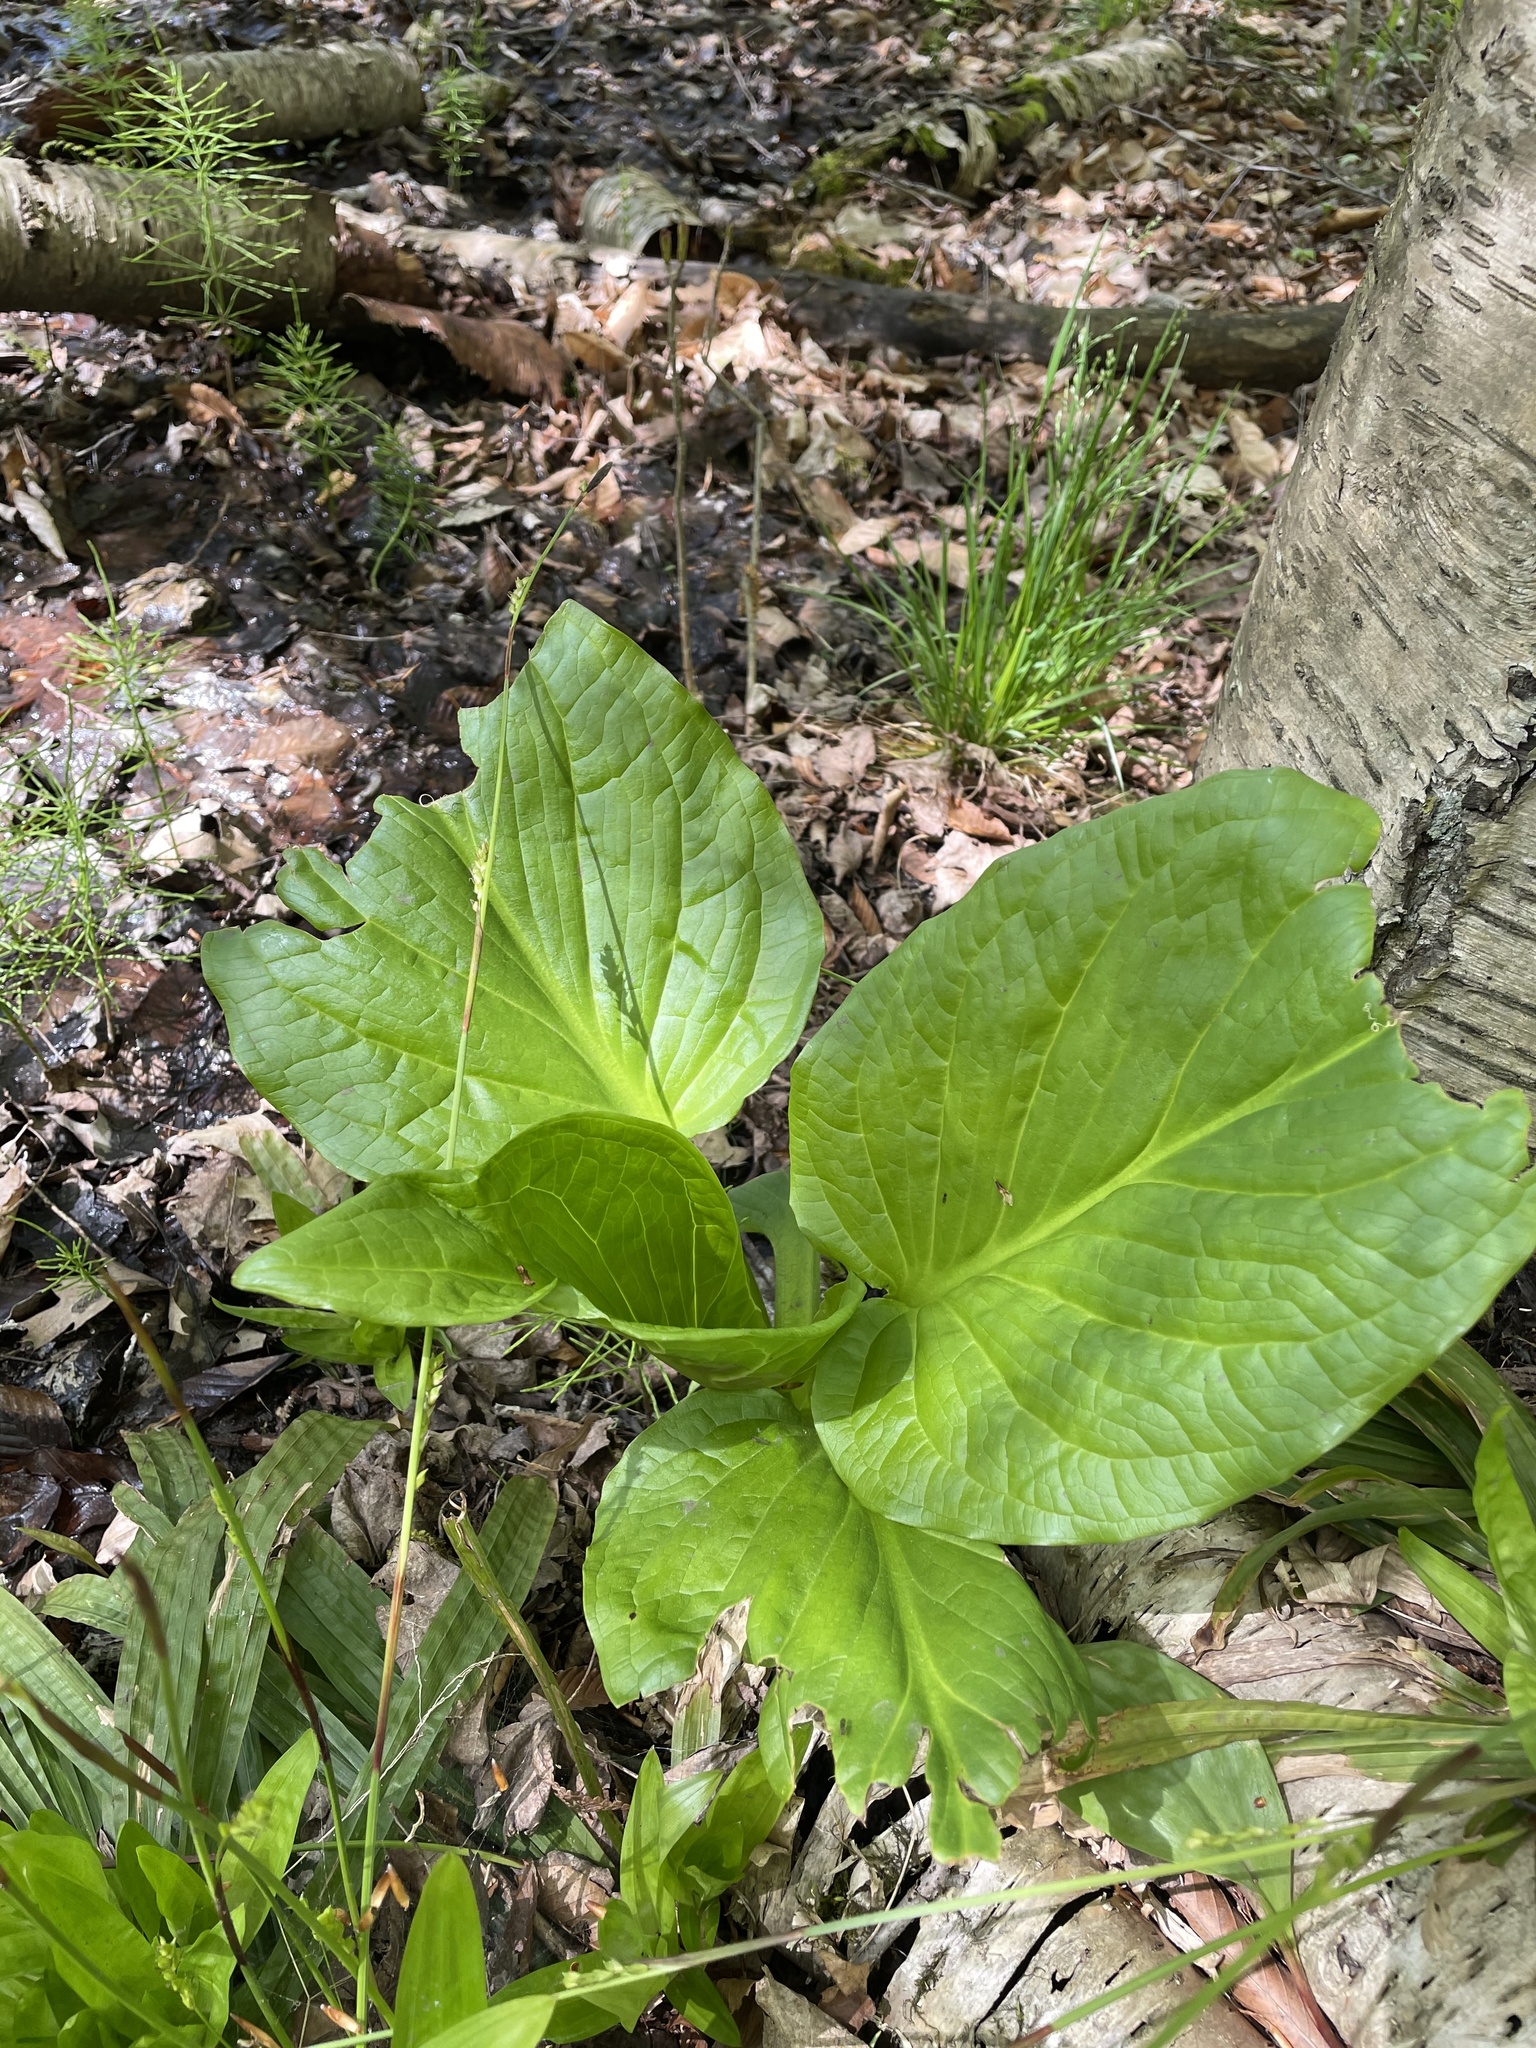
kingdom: Plantae
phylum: Tracheophyta
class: Liliopsida
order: Alismatales
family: Araceae
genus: Symplocarpus
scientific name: Symplocarpus foetidus
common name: Eastern skunk cabbage
